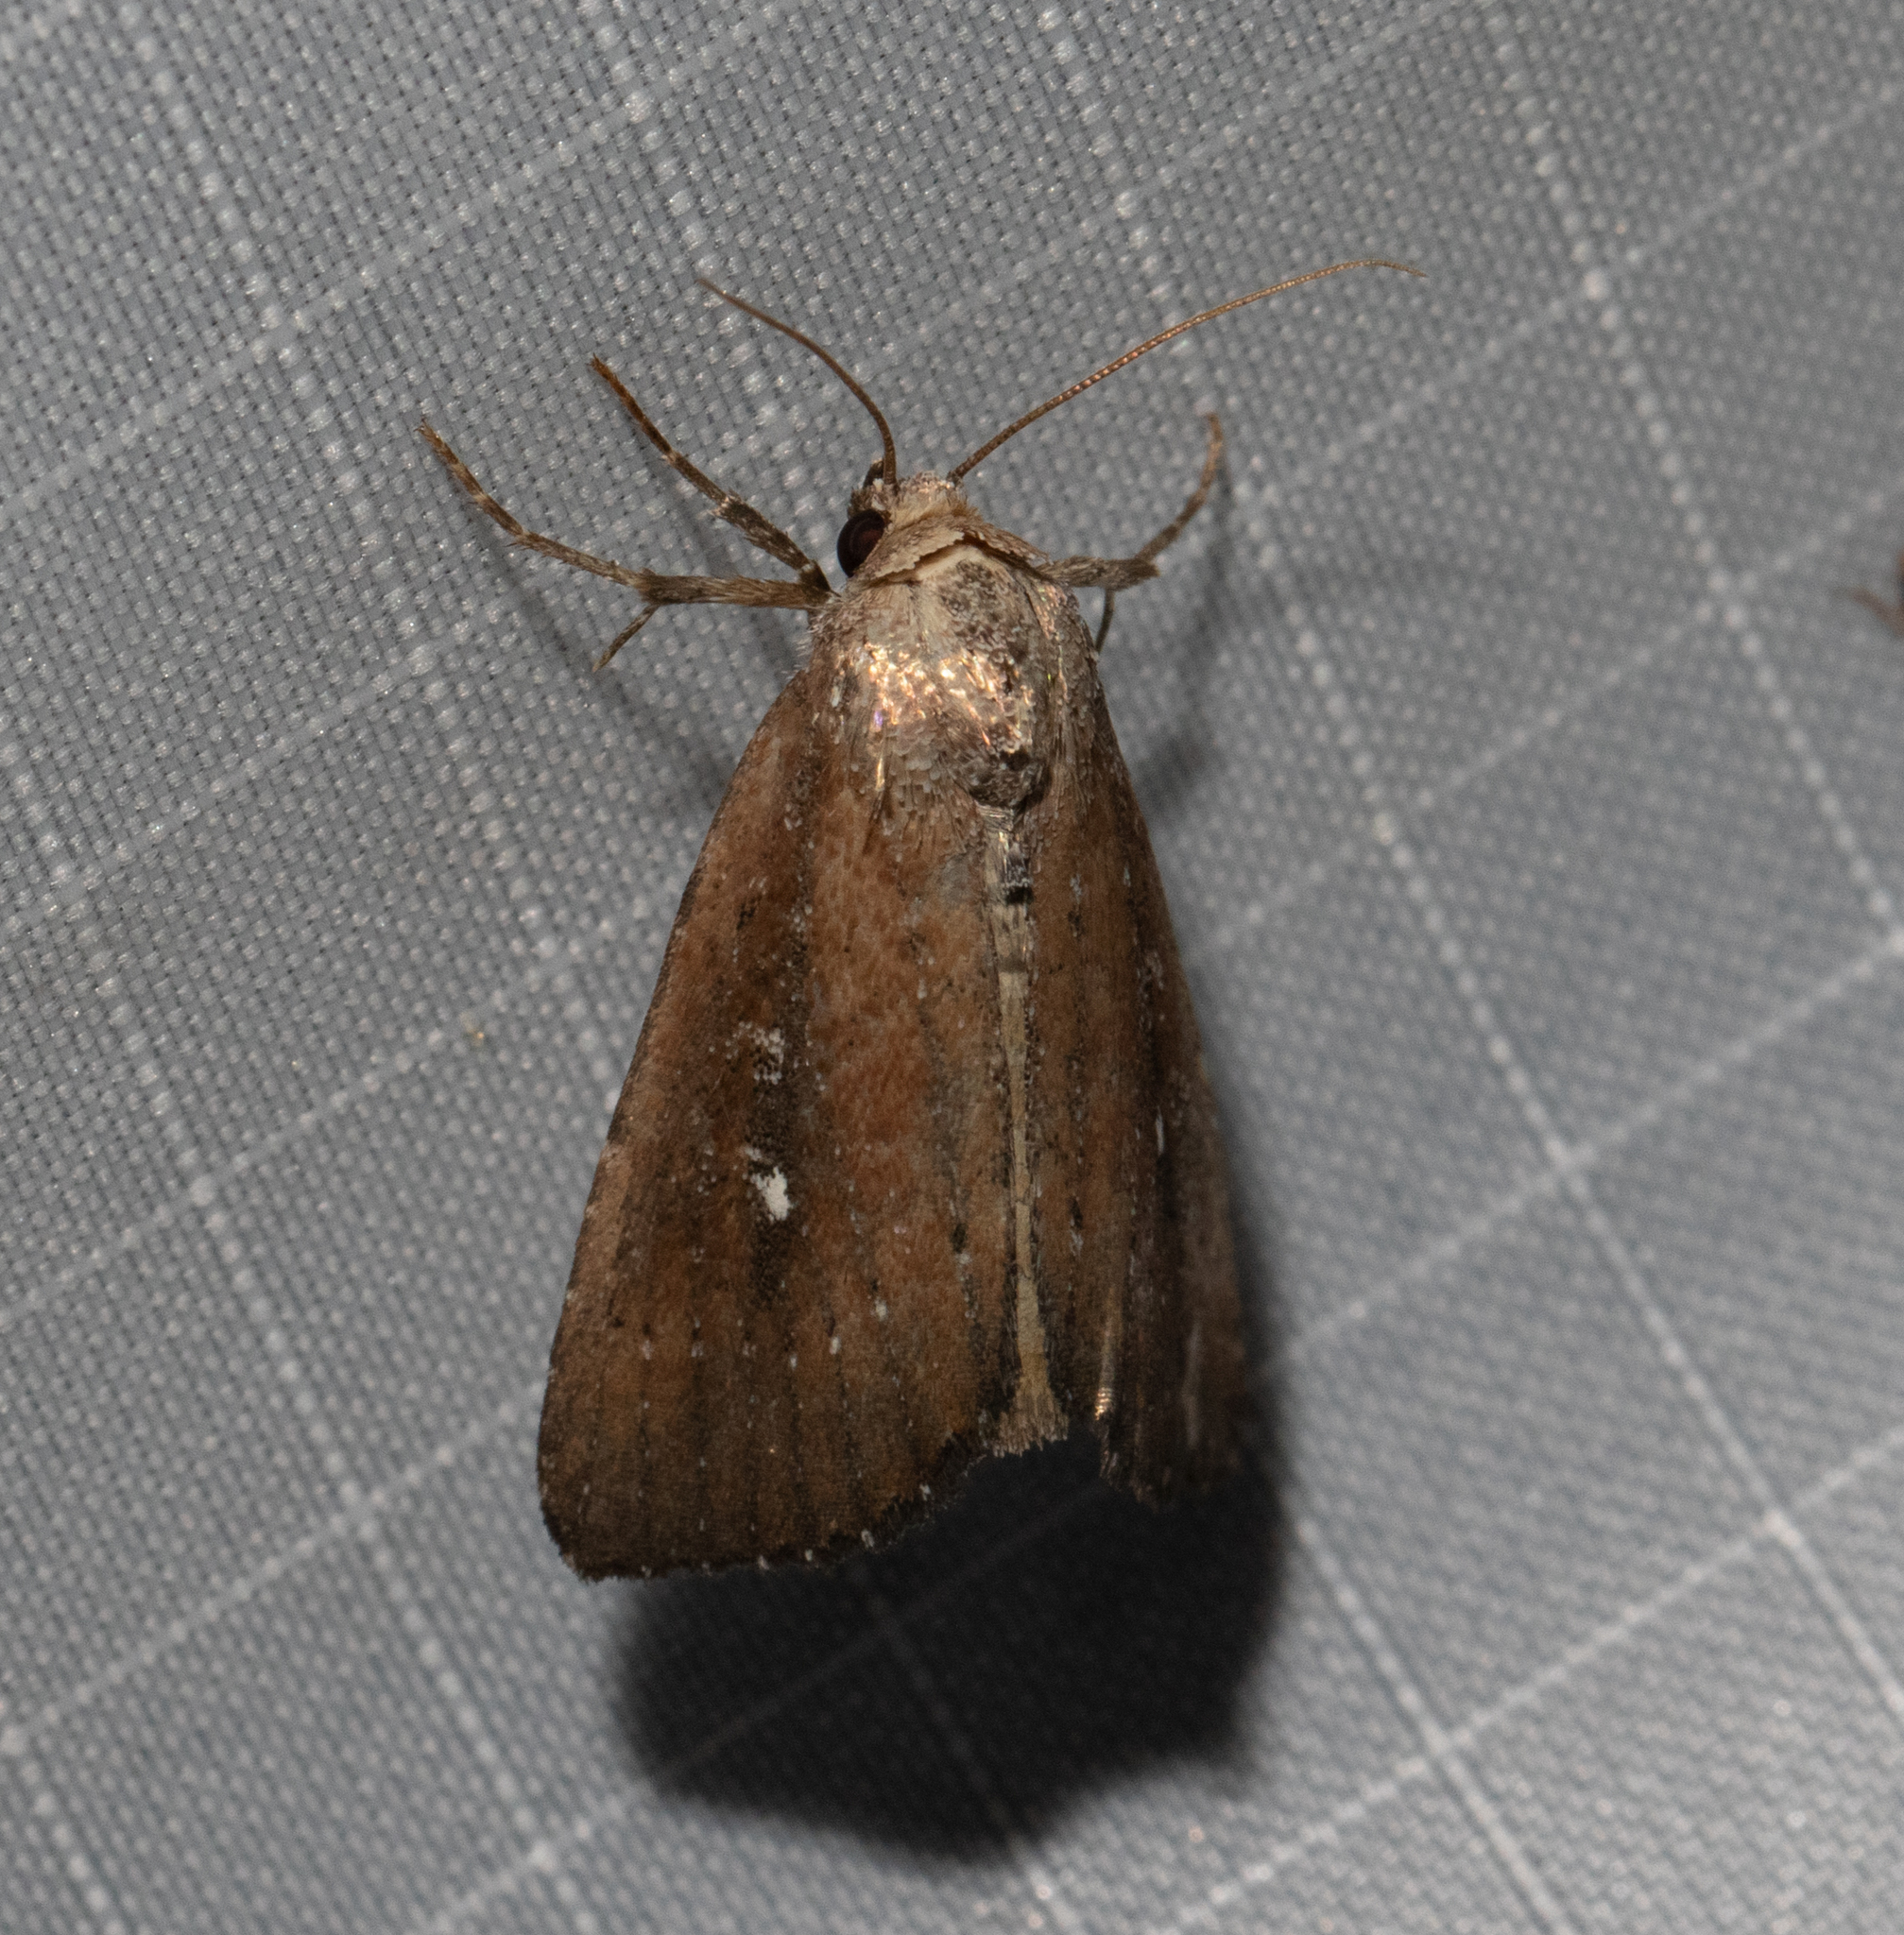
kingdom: Animalia
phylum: Arthropoda
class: Insecta
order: Lepidoptera
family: Noctuidae
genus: Condica
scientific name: Condica videns
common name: White-dotted groundling
